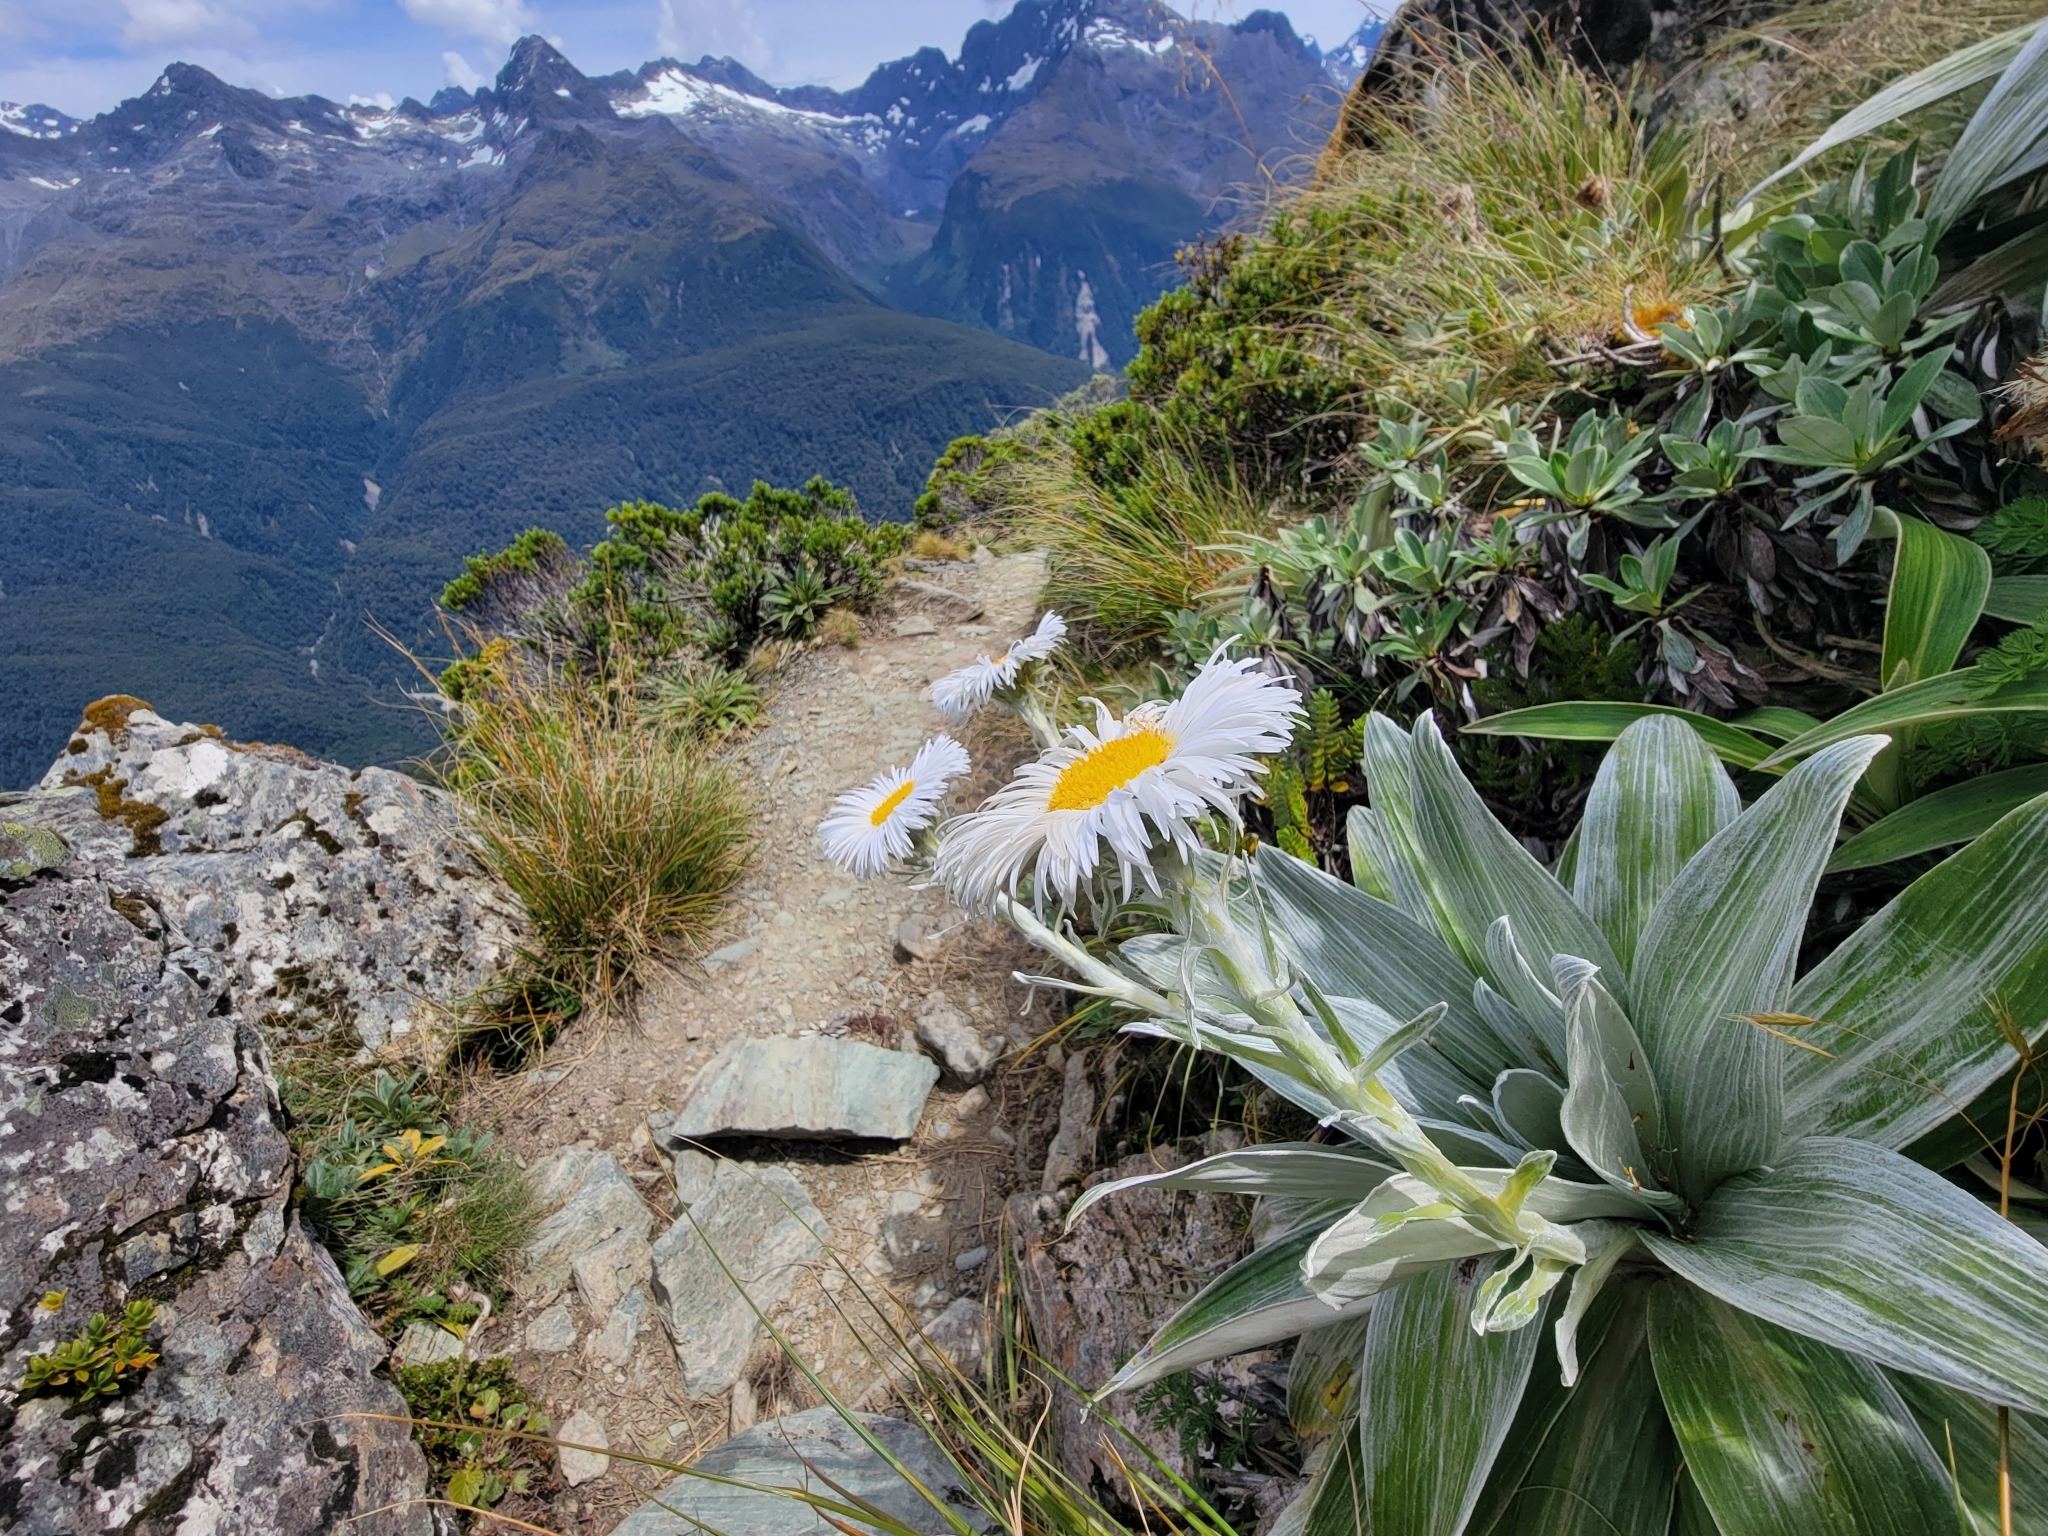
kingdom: Plantae
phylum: Tracheophyta
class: Magnoliopsida
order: Asterales
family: Asteraceae
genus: Celmisia
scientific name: Celmisia semicordata
